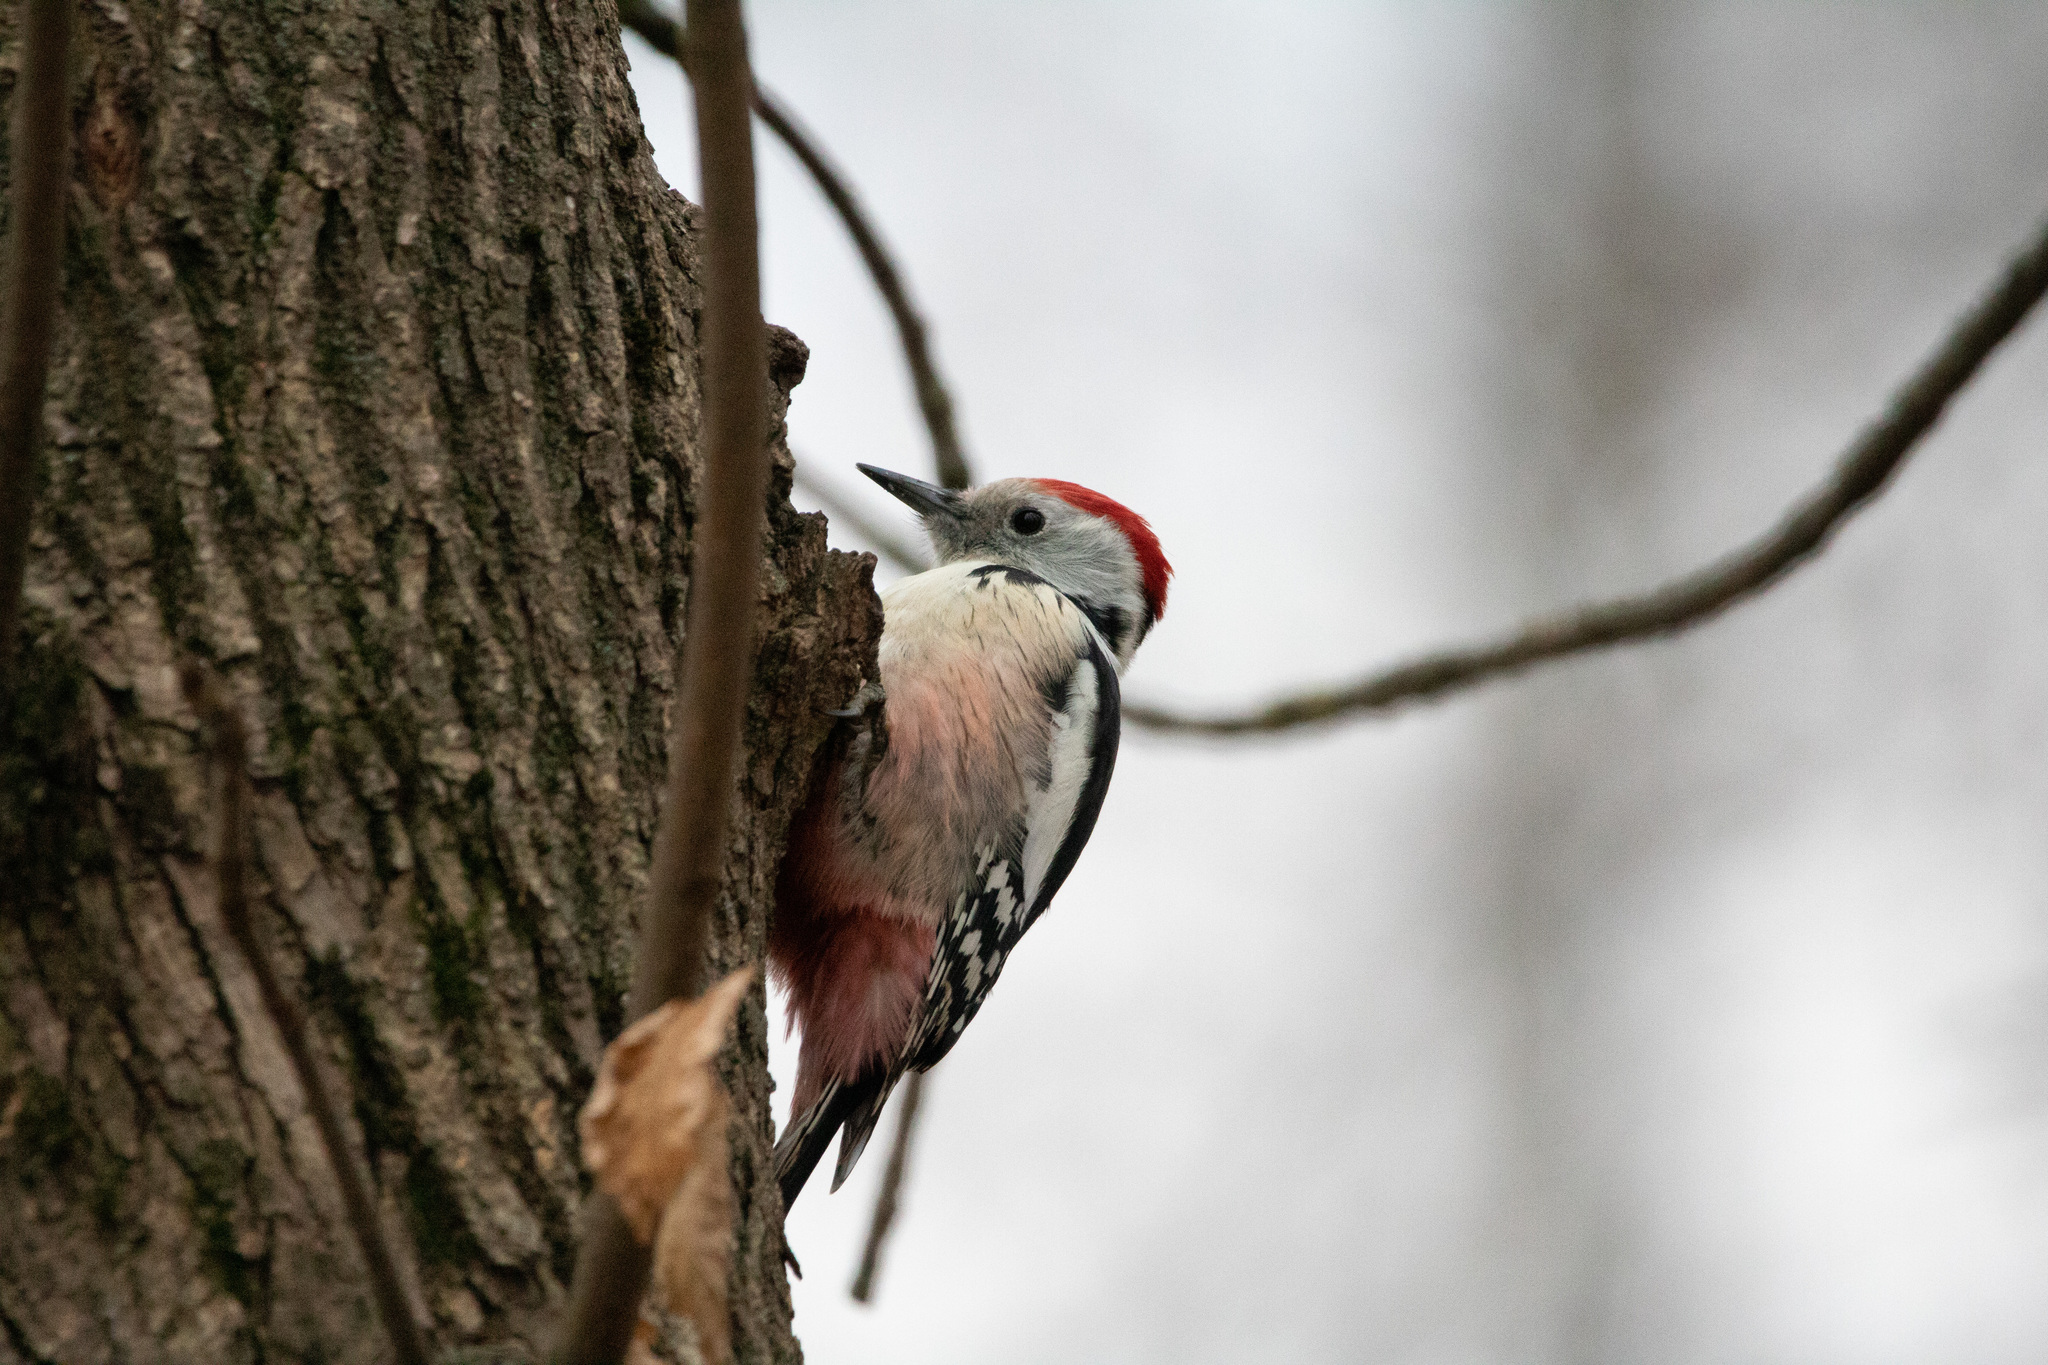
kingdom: Animalia
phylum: Chordata
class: Aves
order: Piciformes
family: Picidae
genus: Dendrocoptes
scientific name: Dendrocoptes medius
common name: Middle spotted woodpecker
